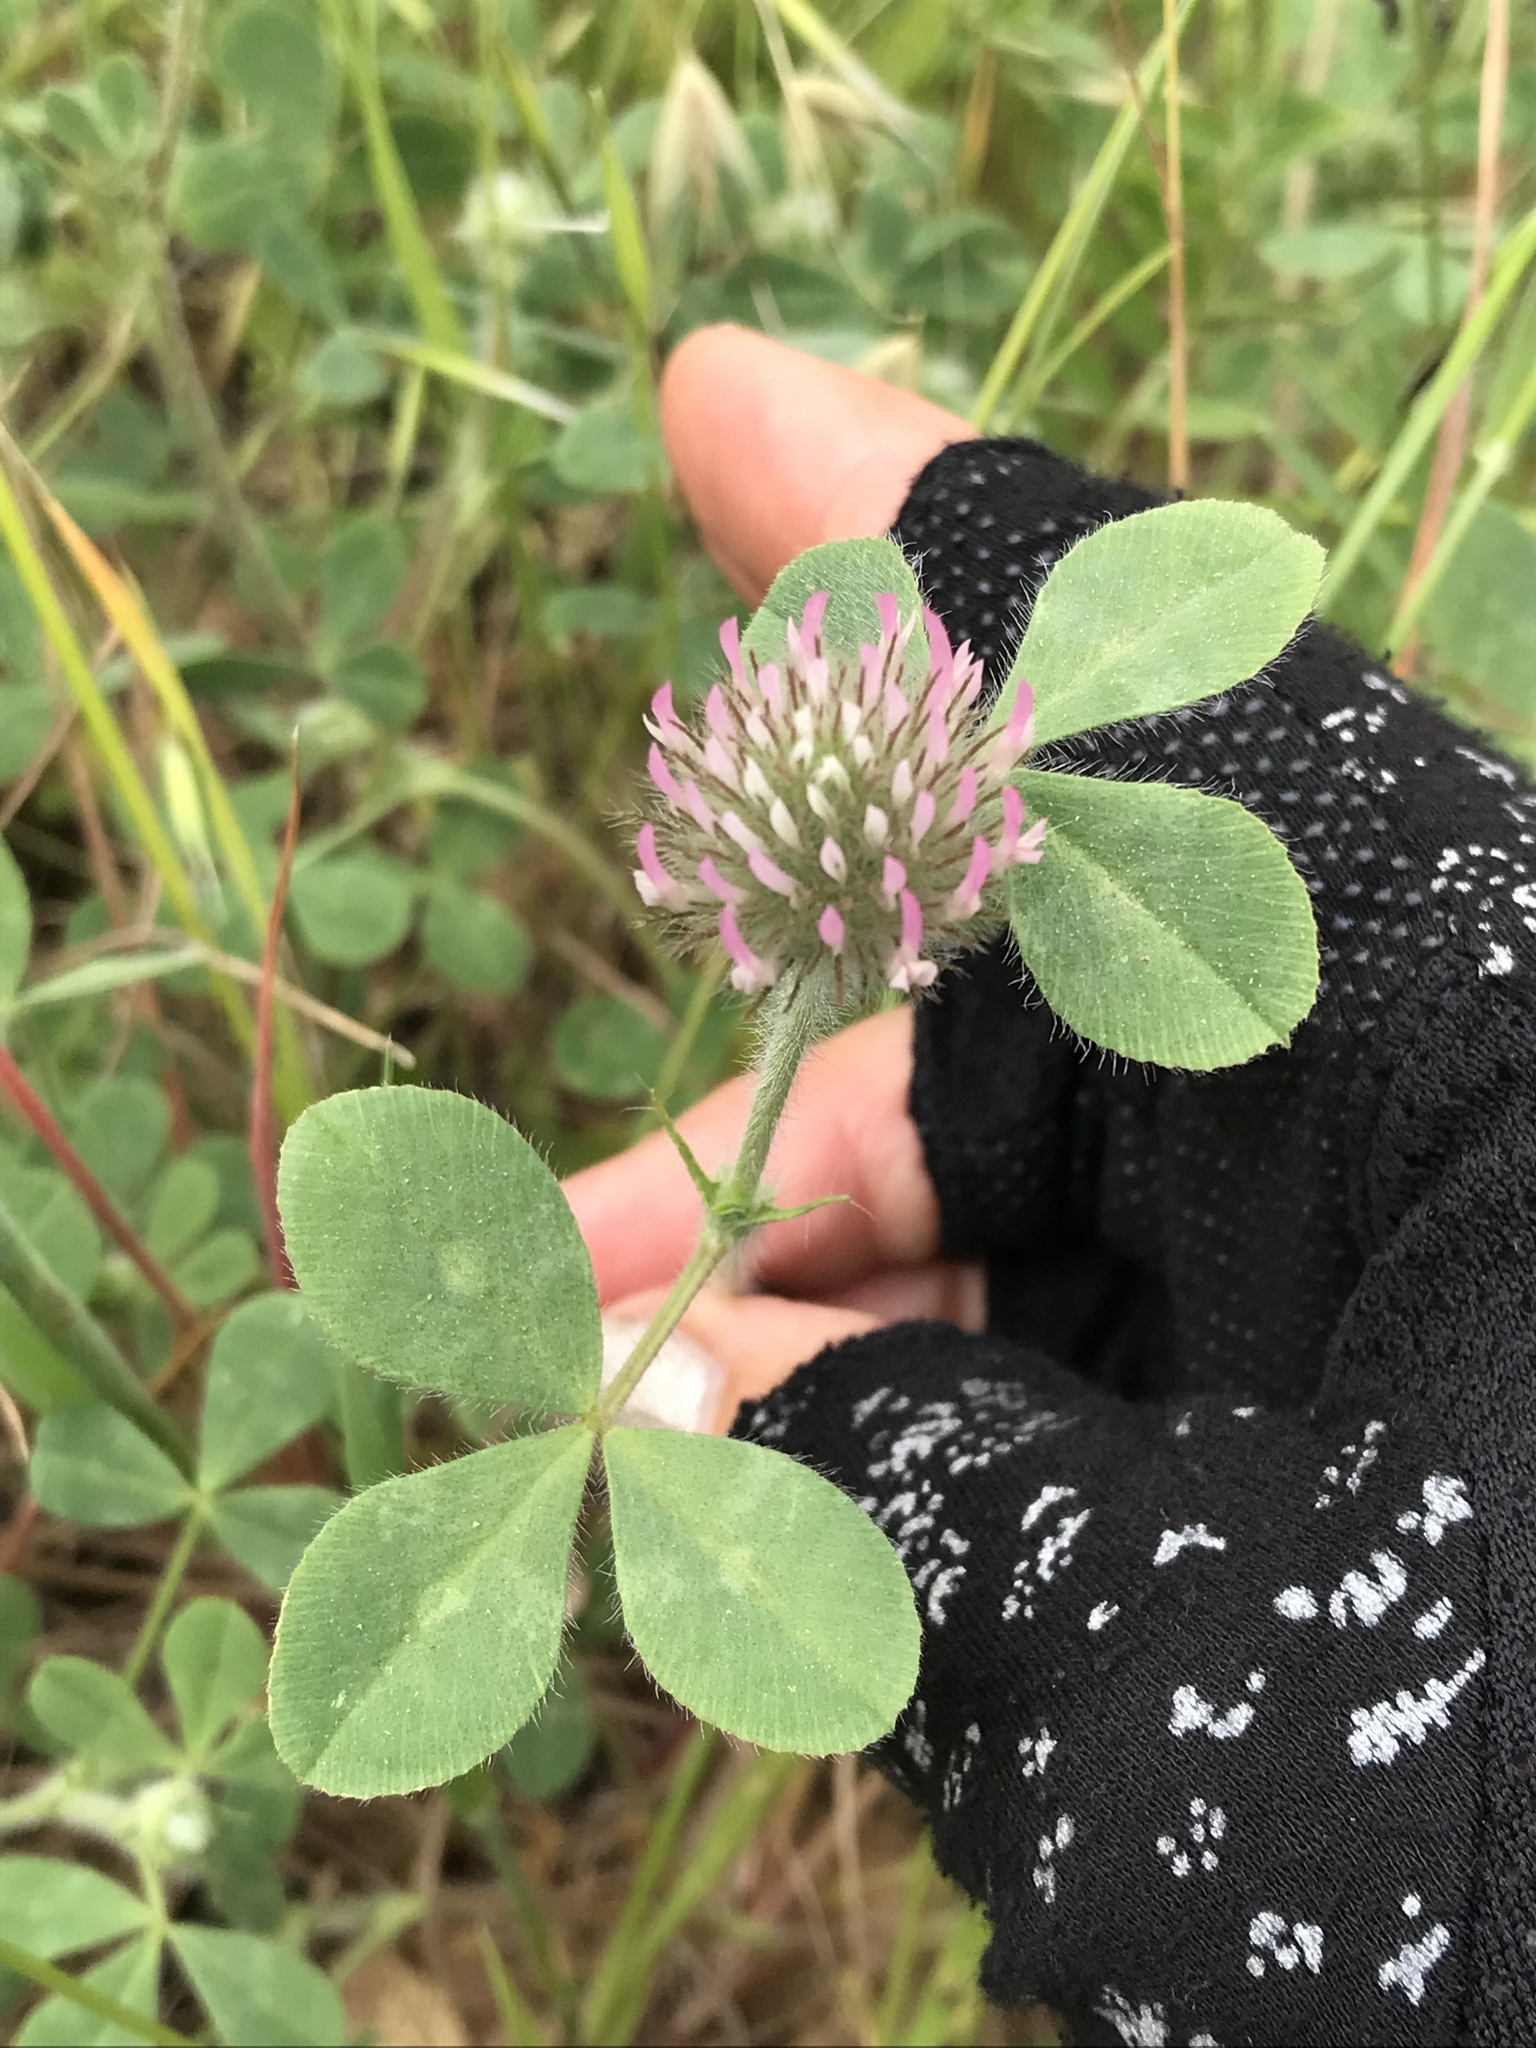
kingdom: Plantae
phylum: Tracheophyta
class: Magnoliopsida
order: Fabales
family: Fabaceae
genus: Trifolium
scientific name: Trifolium hirtum
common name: Rose clover
